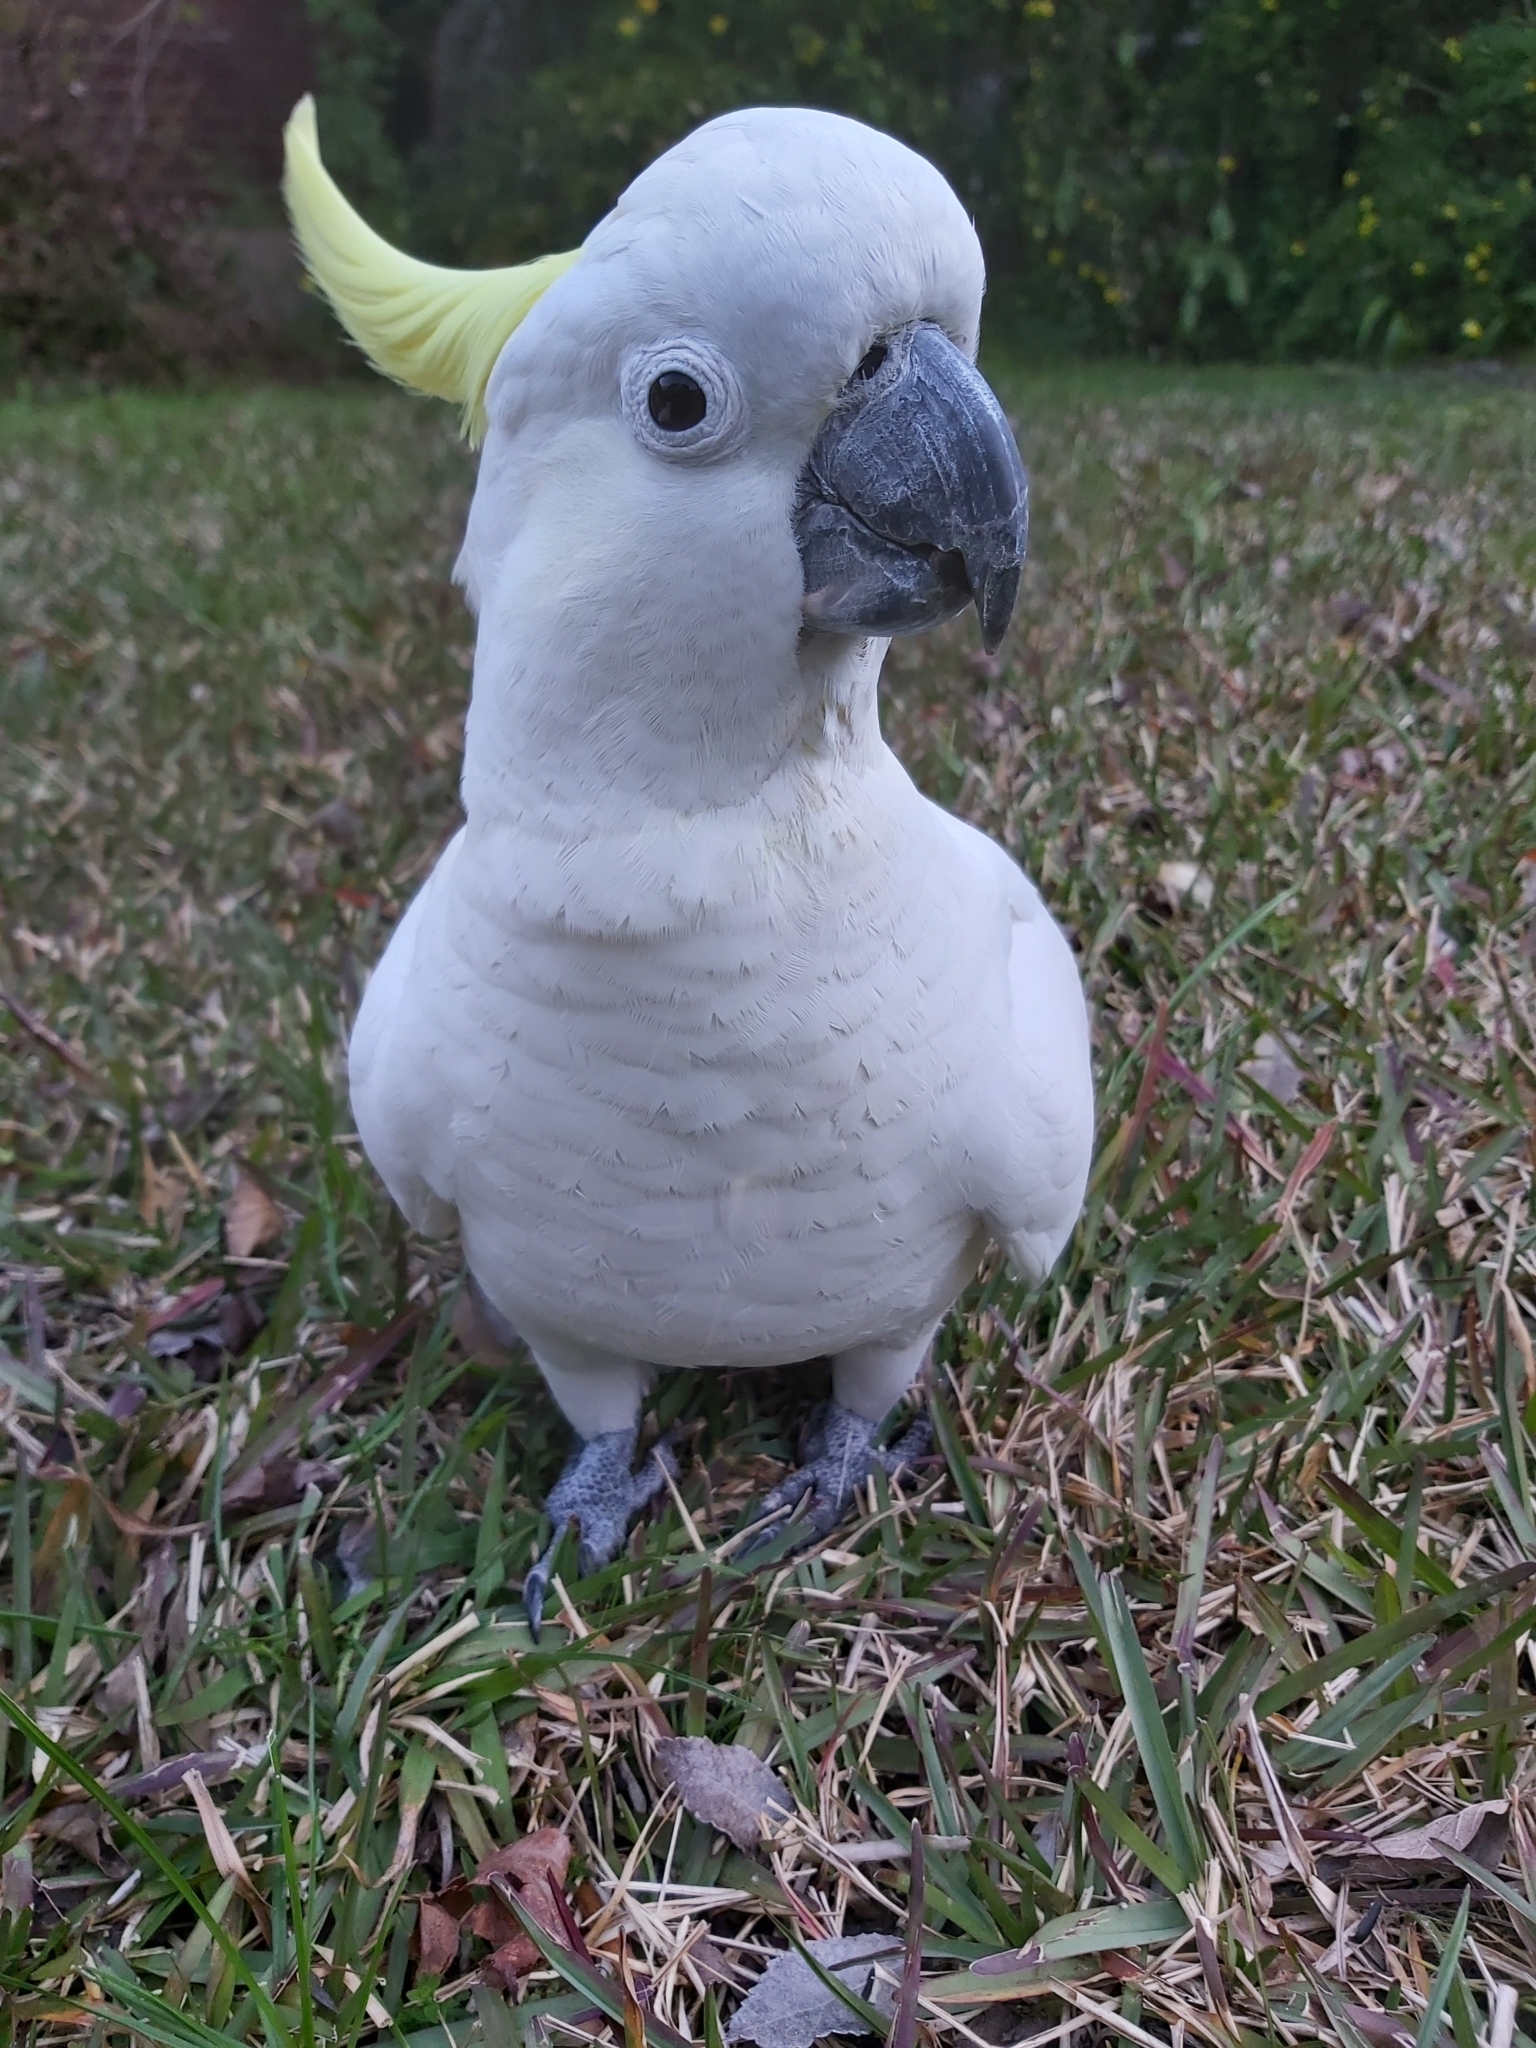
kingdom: Animalia
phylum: Chordata
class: Aves
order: Psittaciformes
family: Psittacidae
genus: Cacatua
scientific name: Cacatua galerita
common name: Sulphur-crested cockatoo
